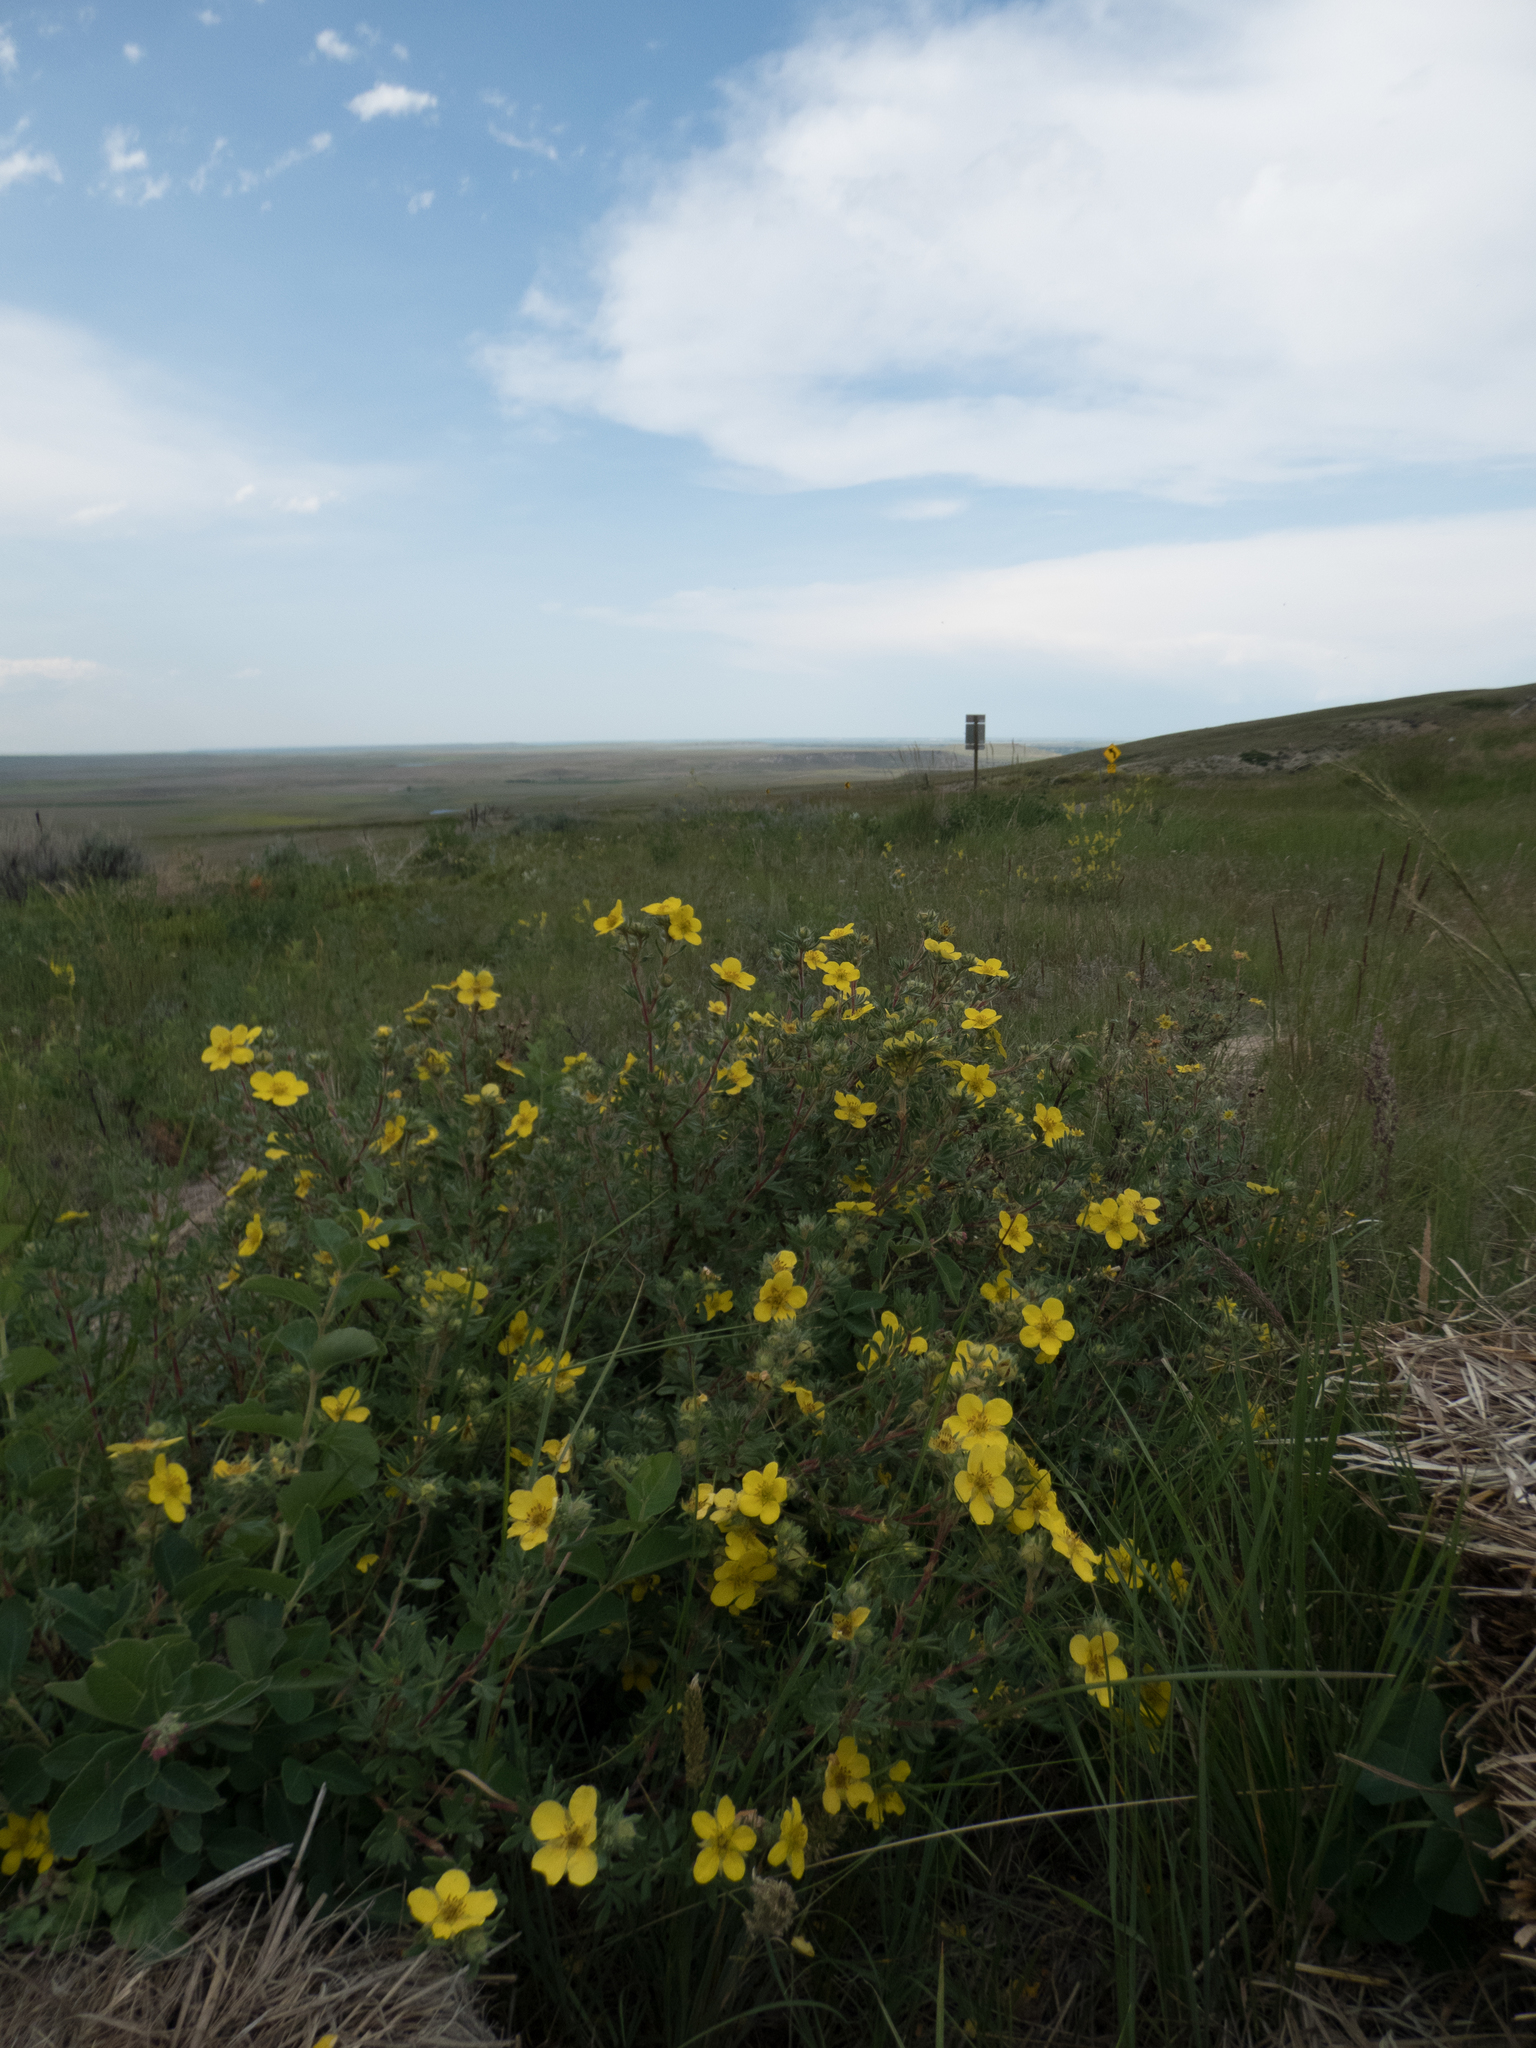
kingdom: Plantae
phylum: Tracheophyta
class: Magnoliopsida
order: Rosales
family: Rosaceae
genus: Dasiphora
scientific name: Dasiphora fruticosa
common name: Shrubby cinquefoil
